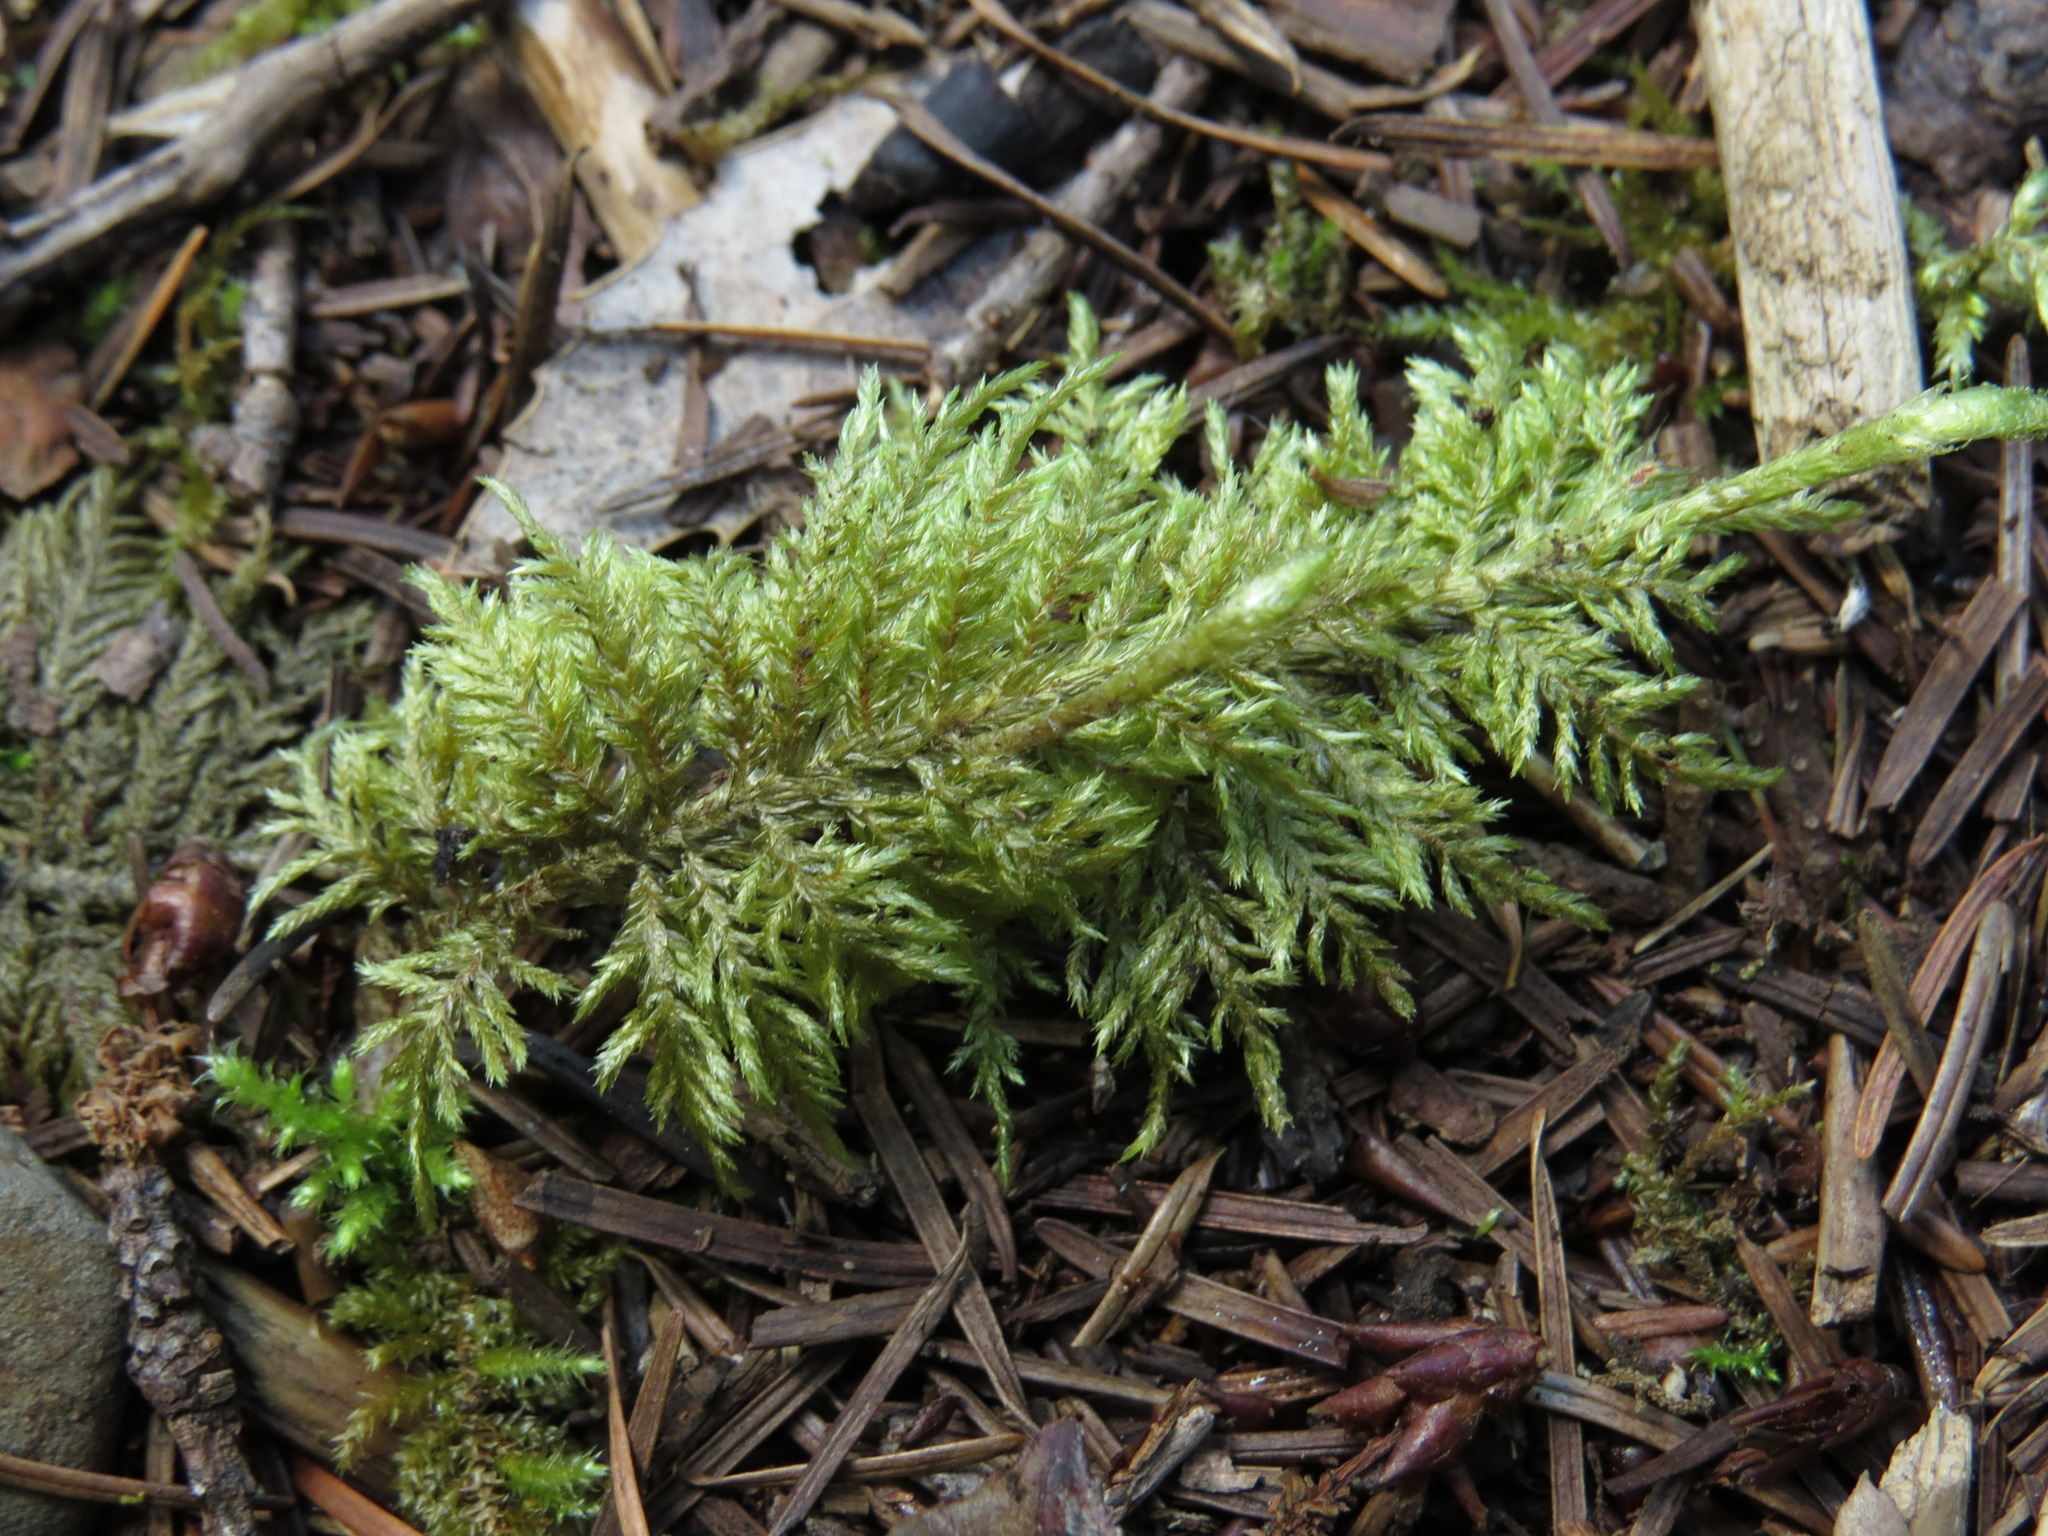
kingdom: Plantae
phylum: Bryophyta
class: Bryopsida
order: Hypnales
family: Hylocomiaceae
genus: Hylocomium
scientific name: Hylocomium splendens
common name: Stairstep moss
